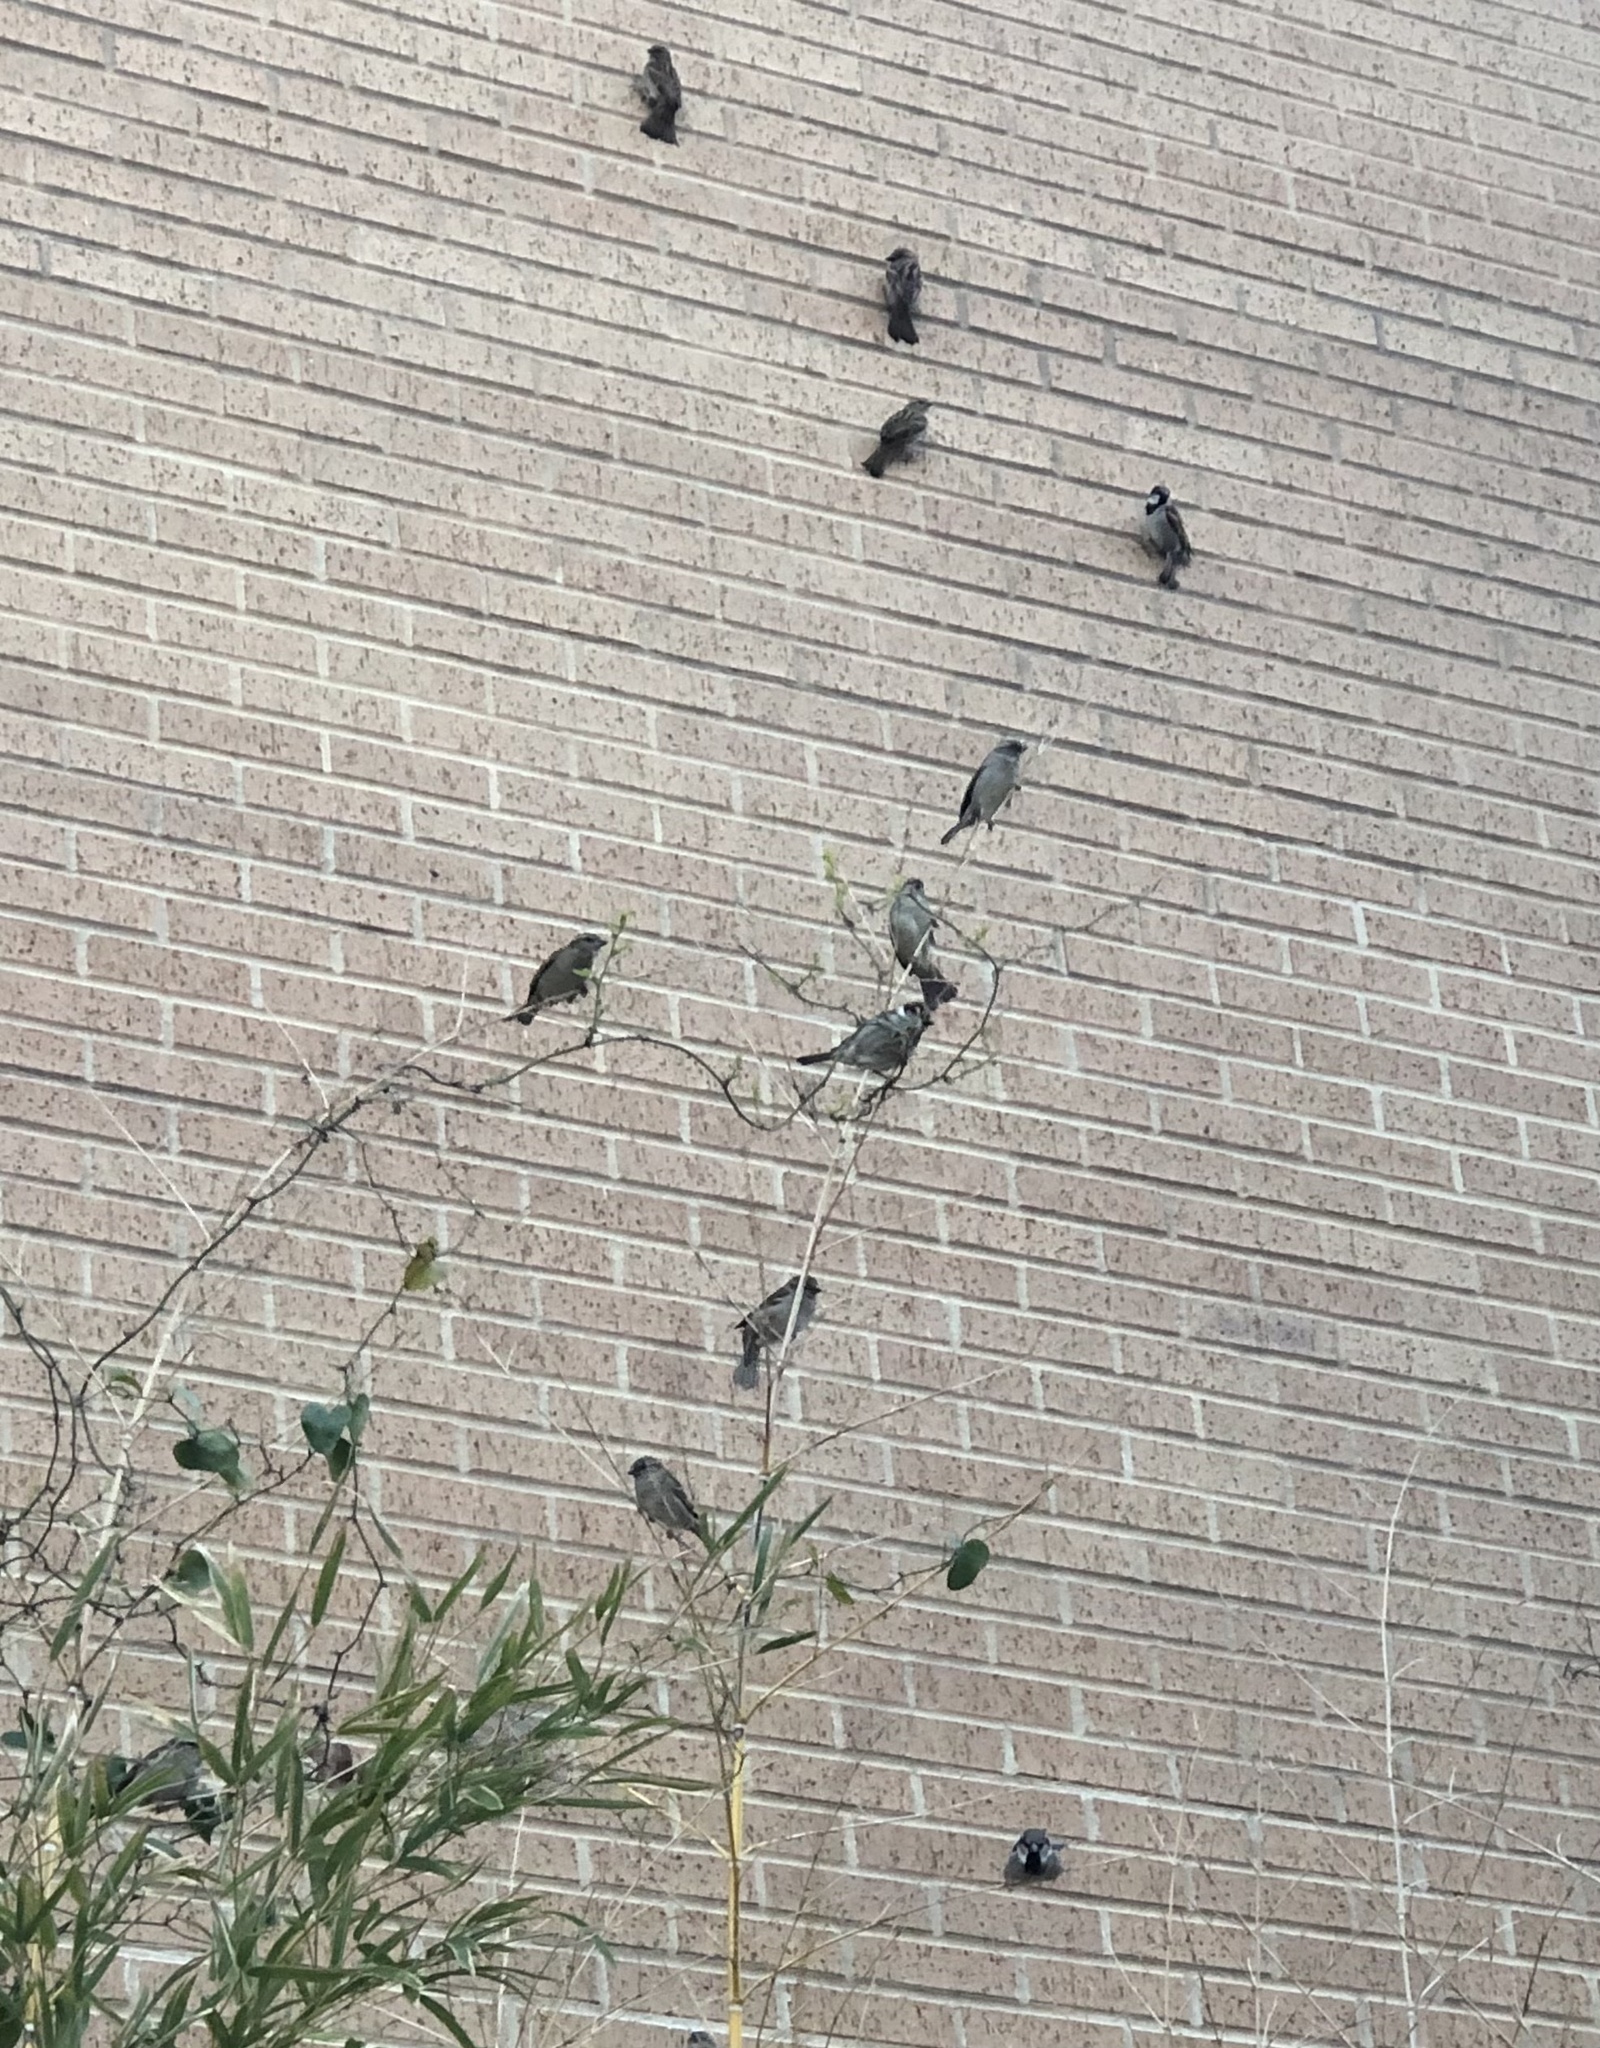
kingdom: Animalia
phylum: Chordata
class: Aves
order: Passeriformes
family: Passeridae
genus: Passer
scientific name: Passer domesticus
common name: House sparrow
